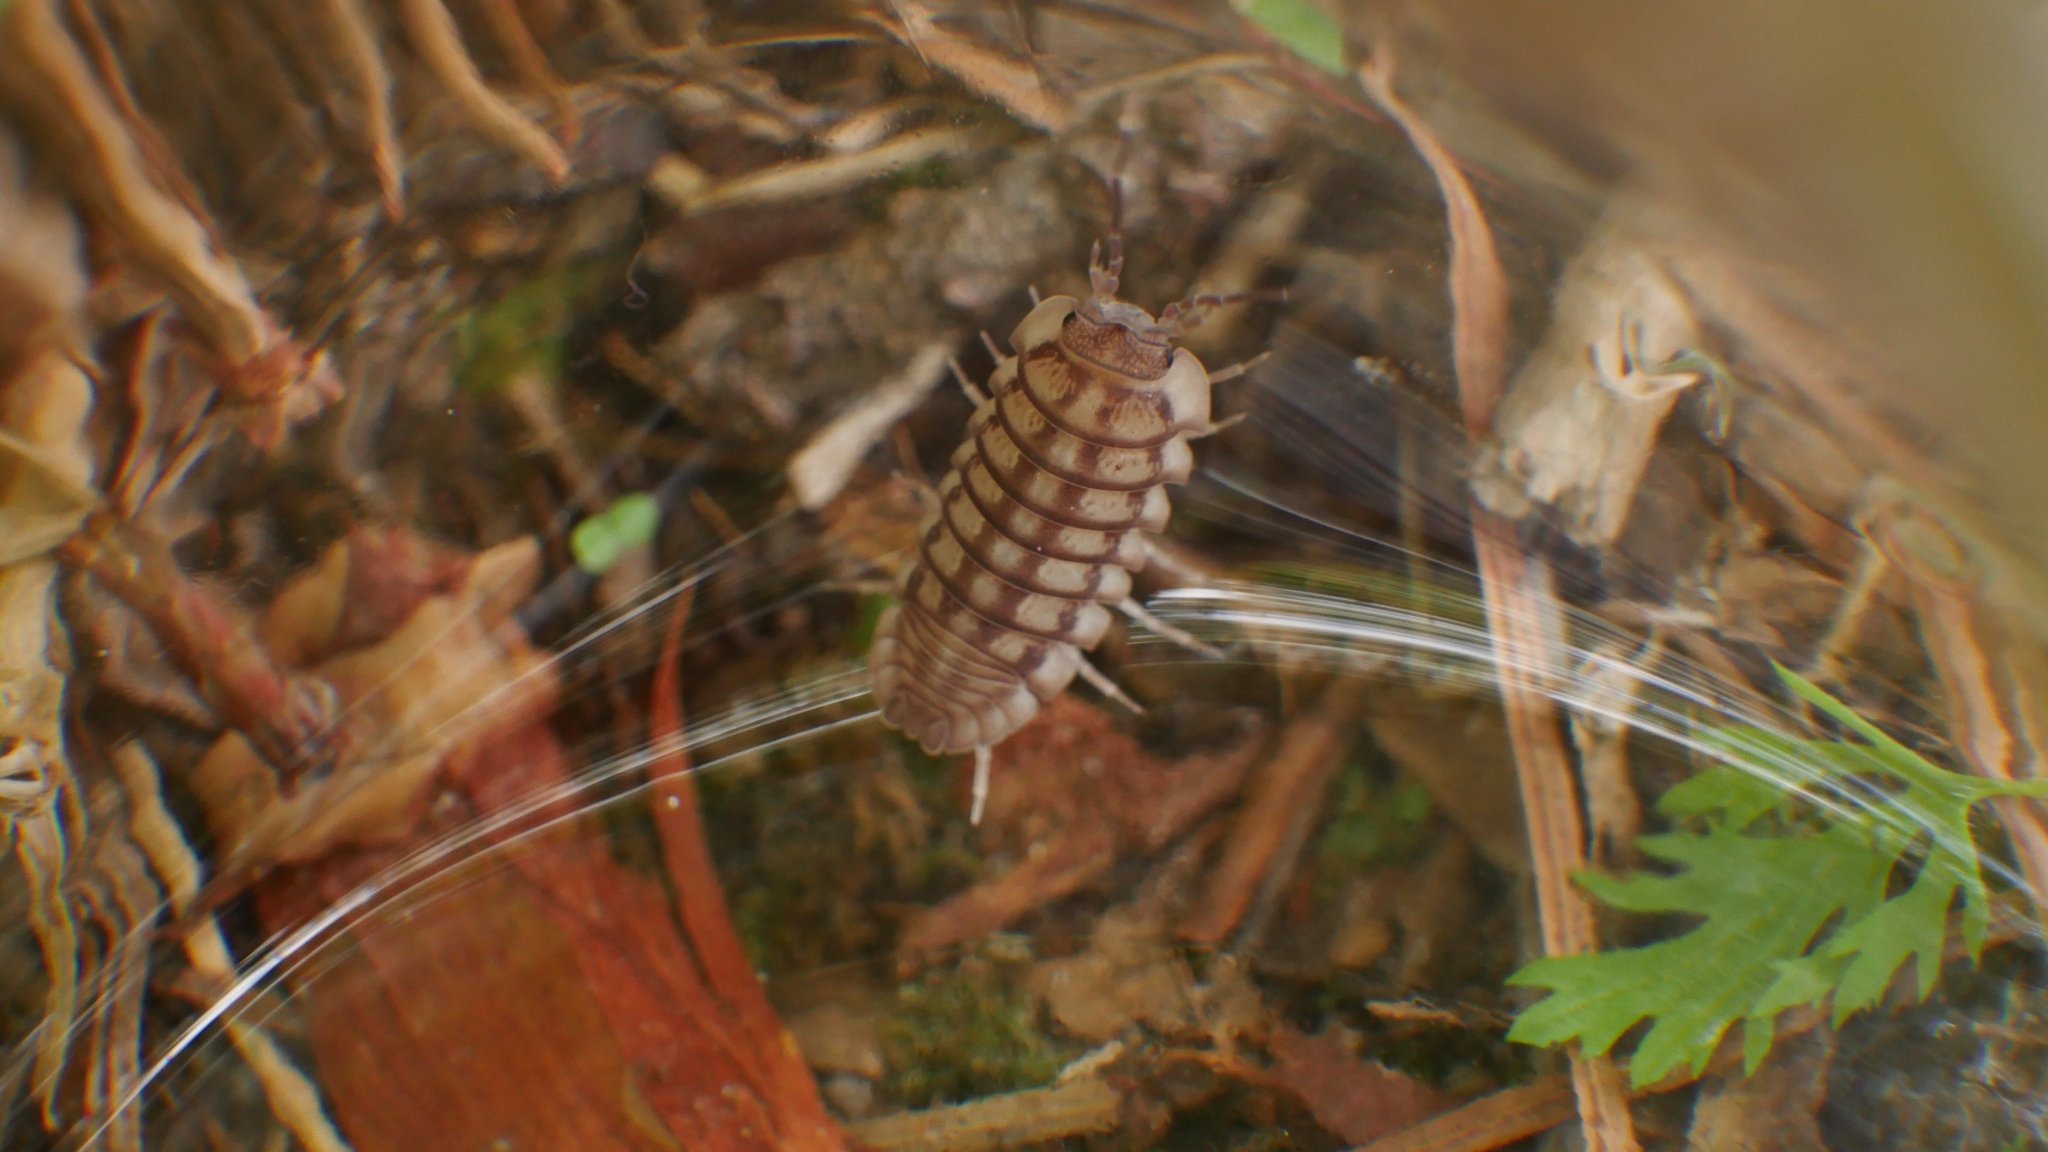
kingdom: Animalia
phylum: Arthropoda
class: Malacostraca
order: Isopoda
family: Armadillidiidae
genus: Armadillidium
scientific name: Armadillidium nasatum
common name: Isopod
